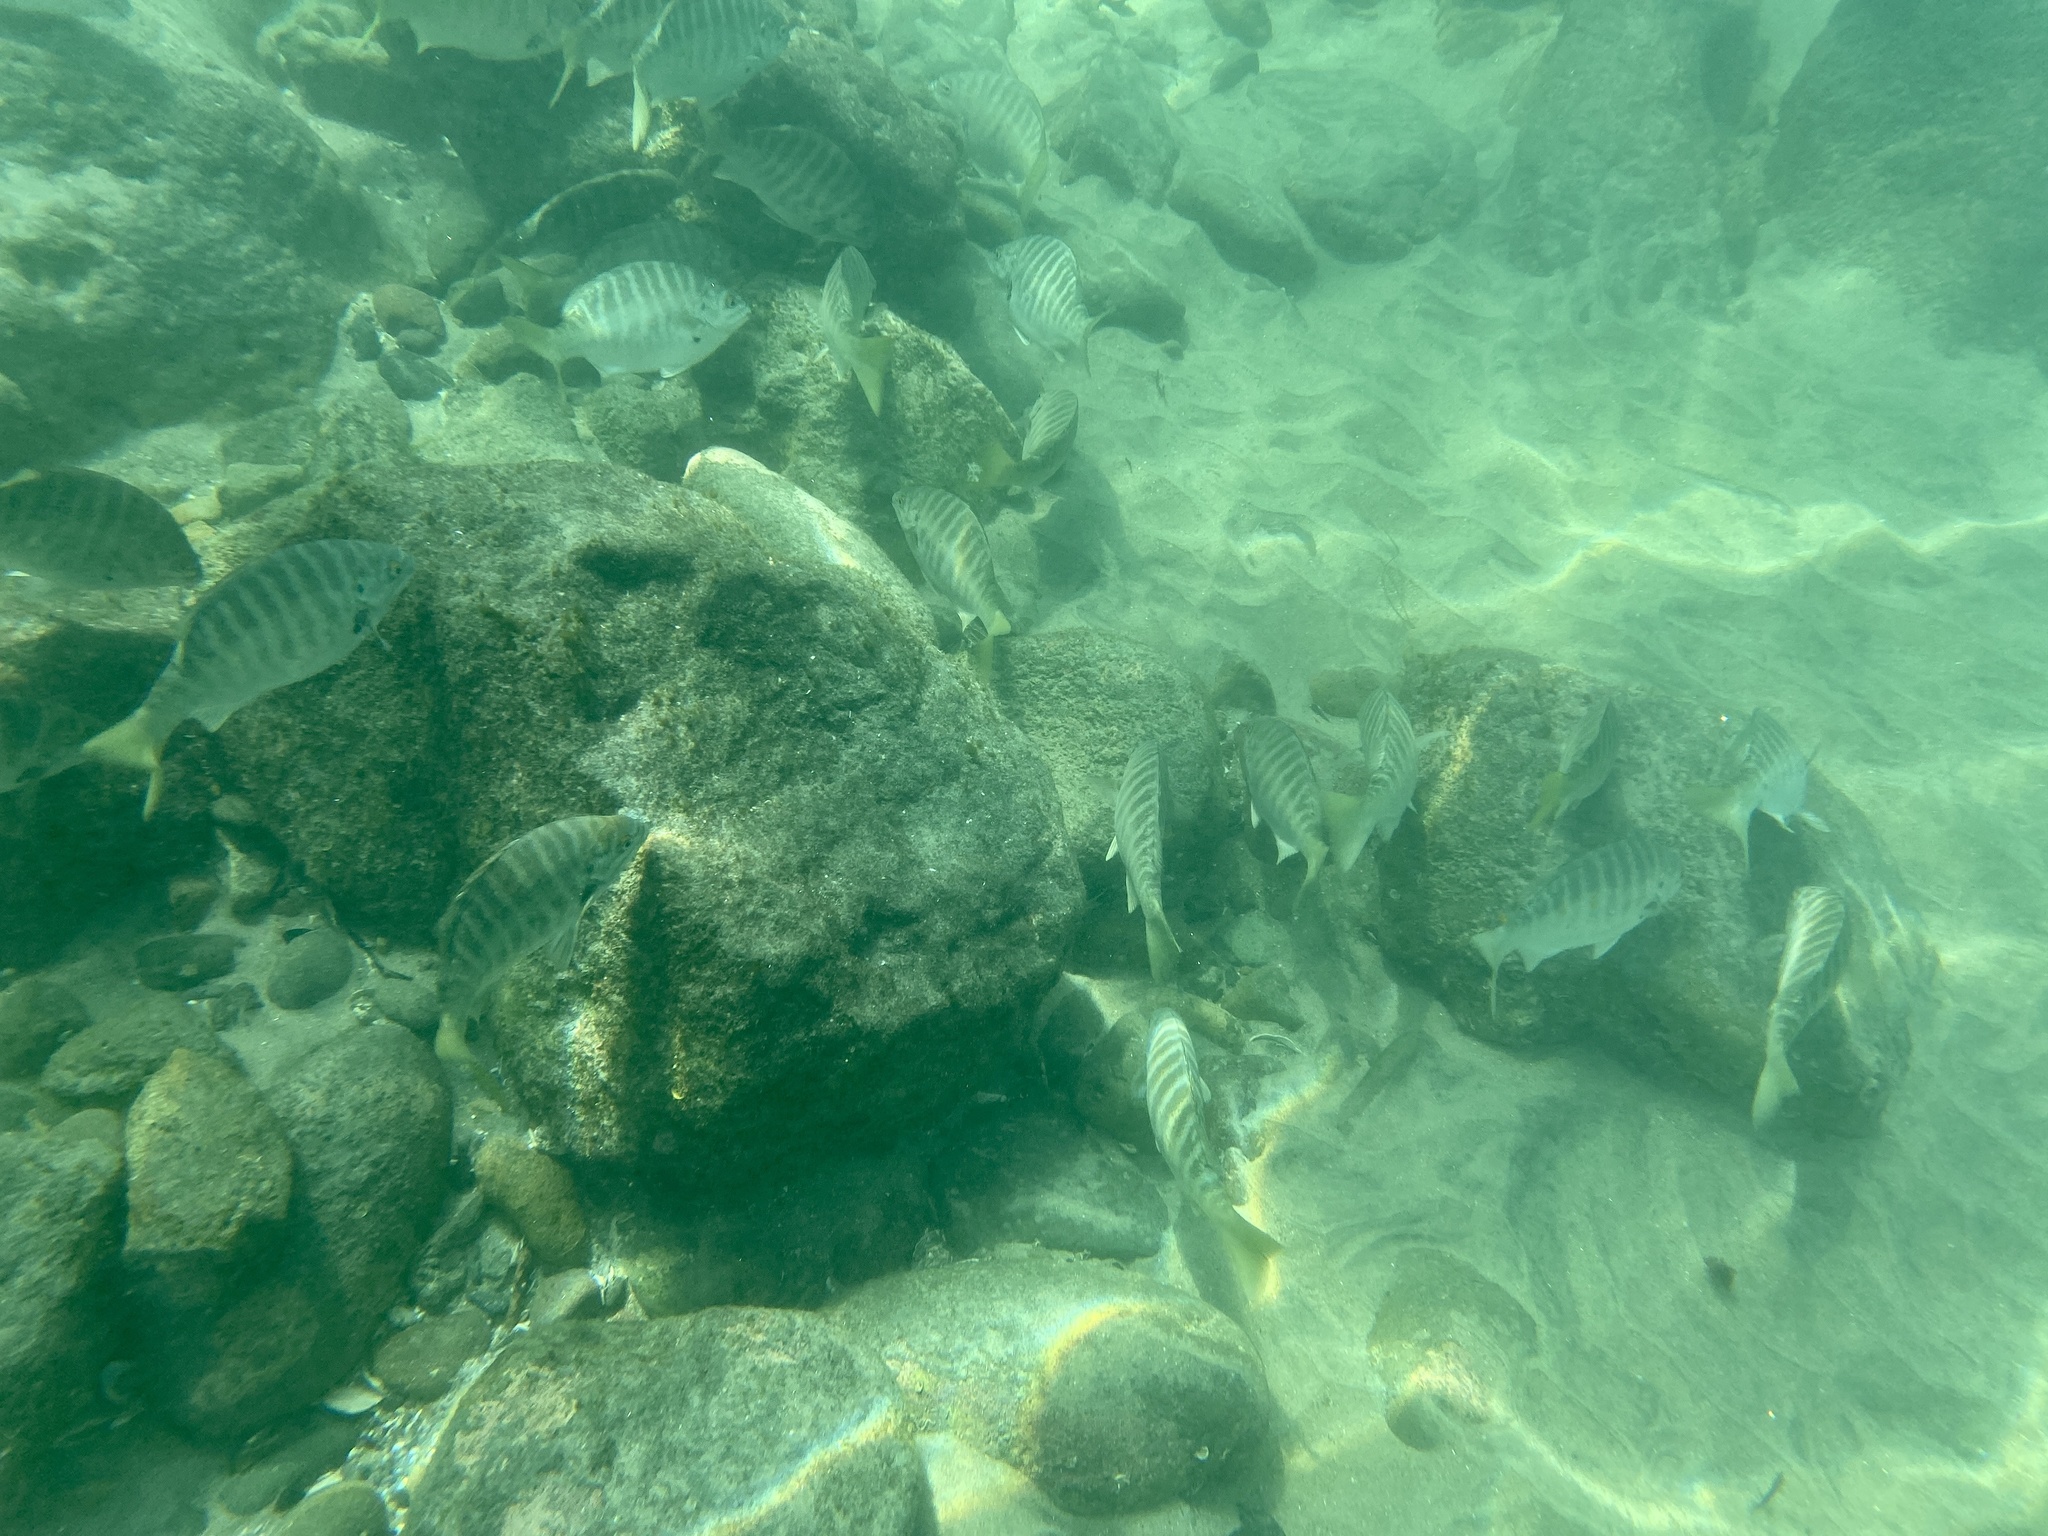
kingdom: Animalia
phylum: Chordata
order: Perciformes
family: Kyphosidae
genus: Kyphosus
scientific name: Kyphosus azureus
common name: Perch
